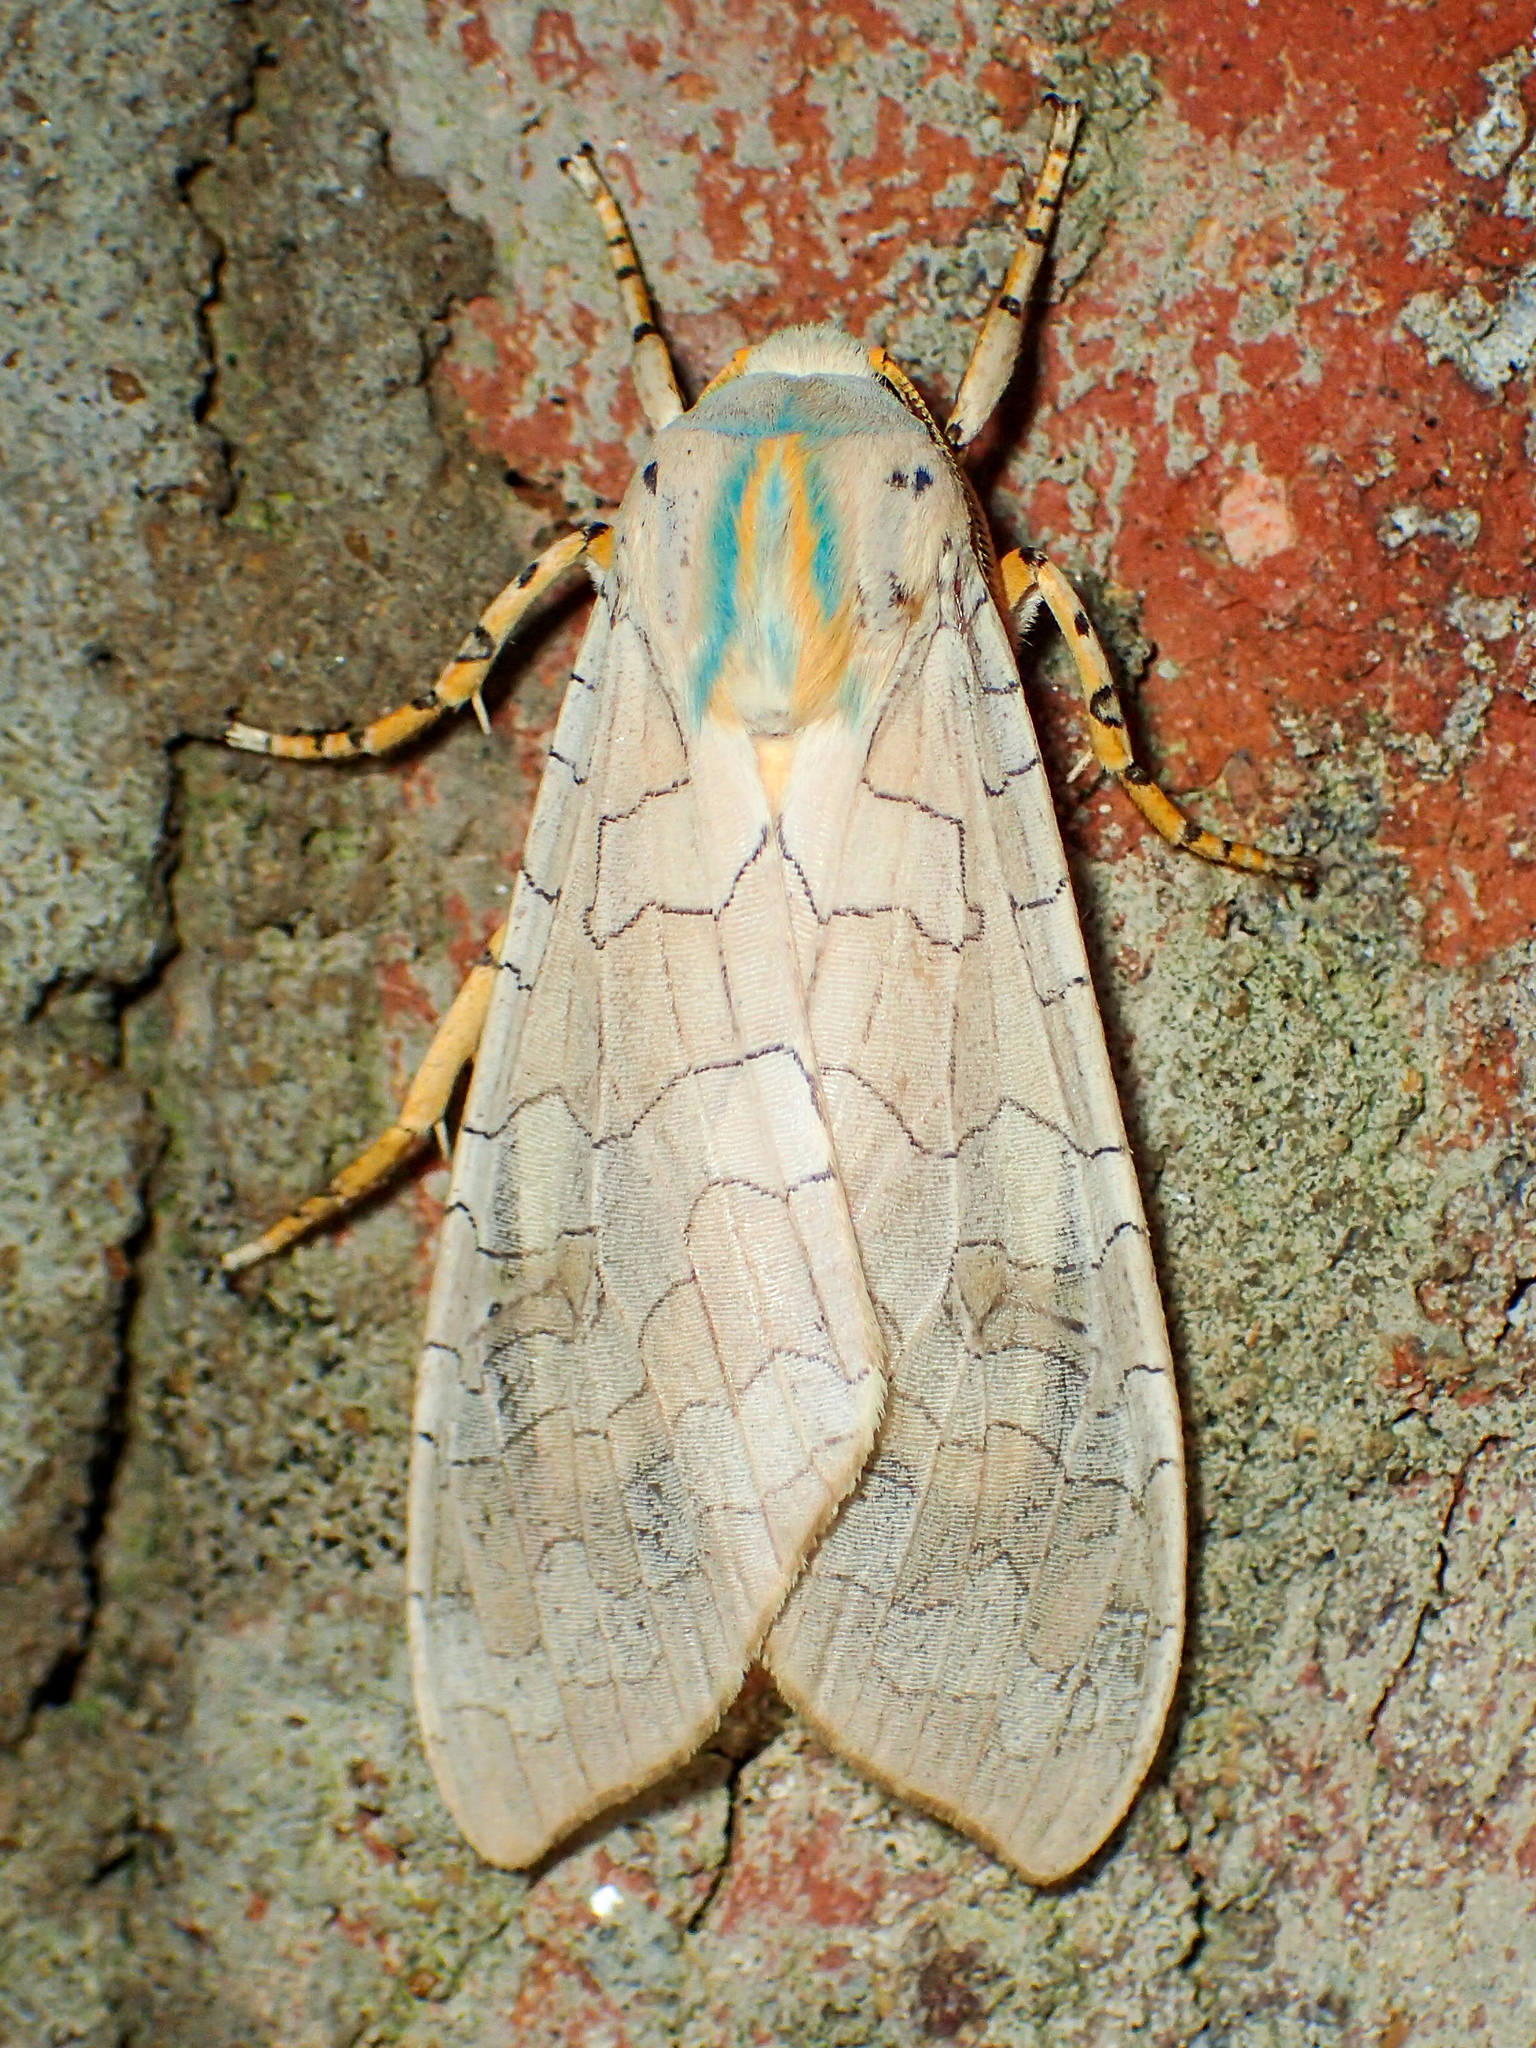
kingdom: Animalia
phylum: Arthropoda
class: Insecta
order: Lepidoptera
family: Erebidae
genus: Halysidota
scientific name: Halysidota
